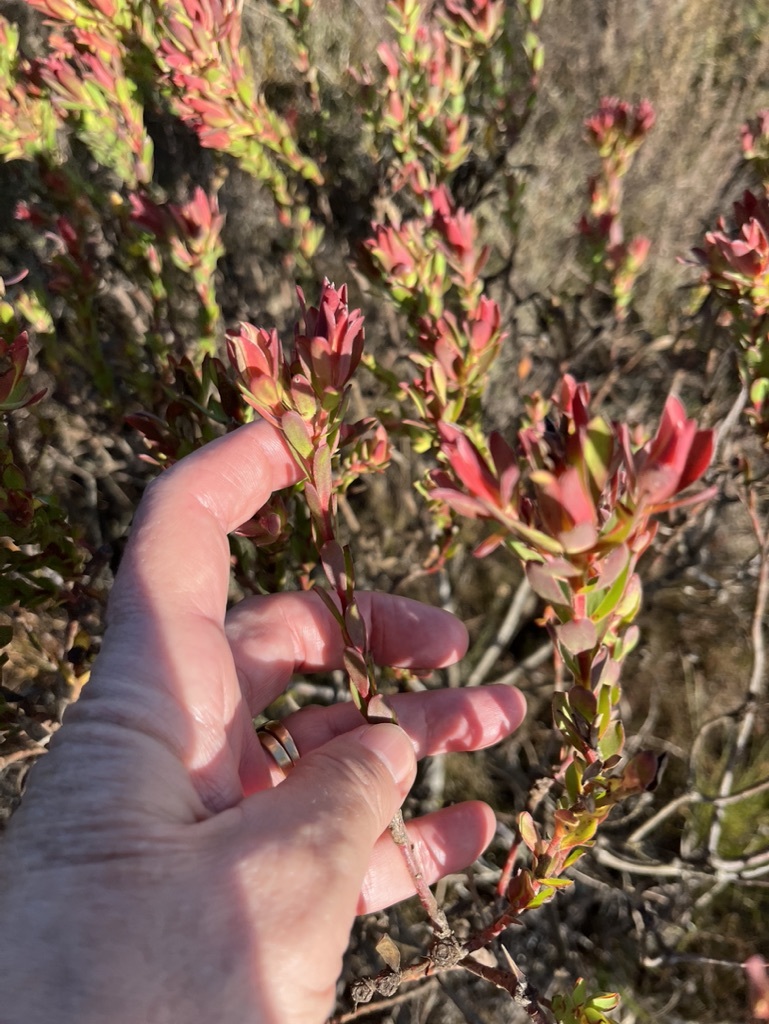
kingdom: Plantae
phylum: Tracheophyta
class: Magnoliopsida
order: Proteales
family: Proteaceae
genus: Leucadendron
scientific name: Leucadendron modestum
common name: Rough-leaf conebush
